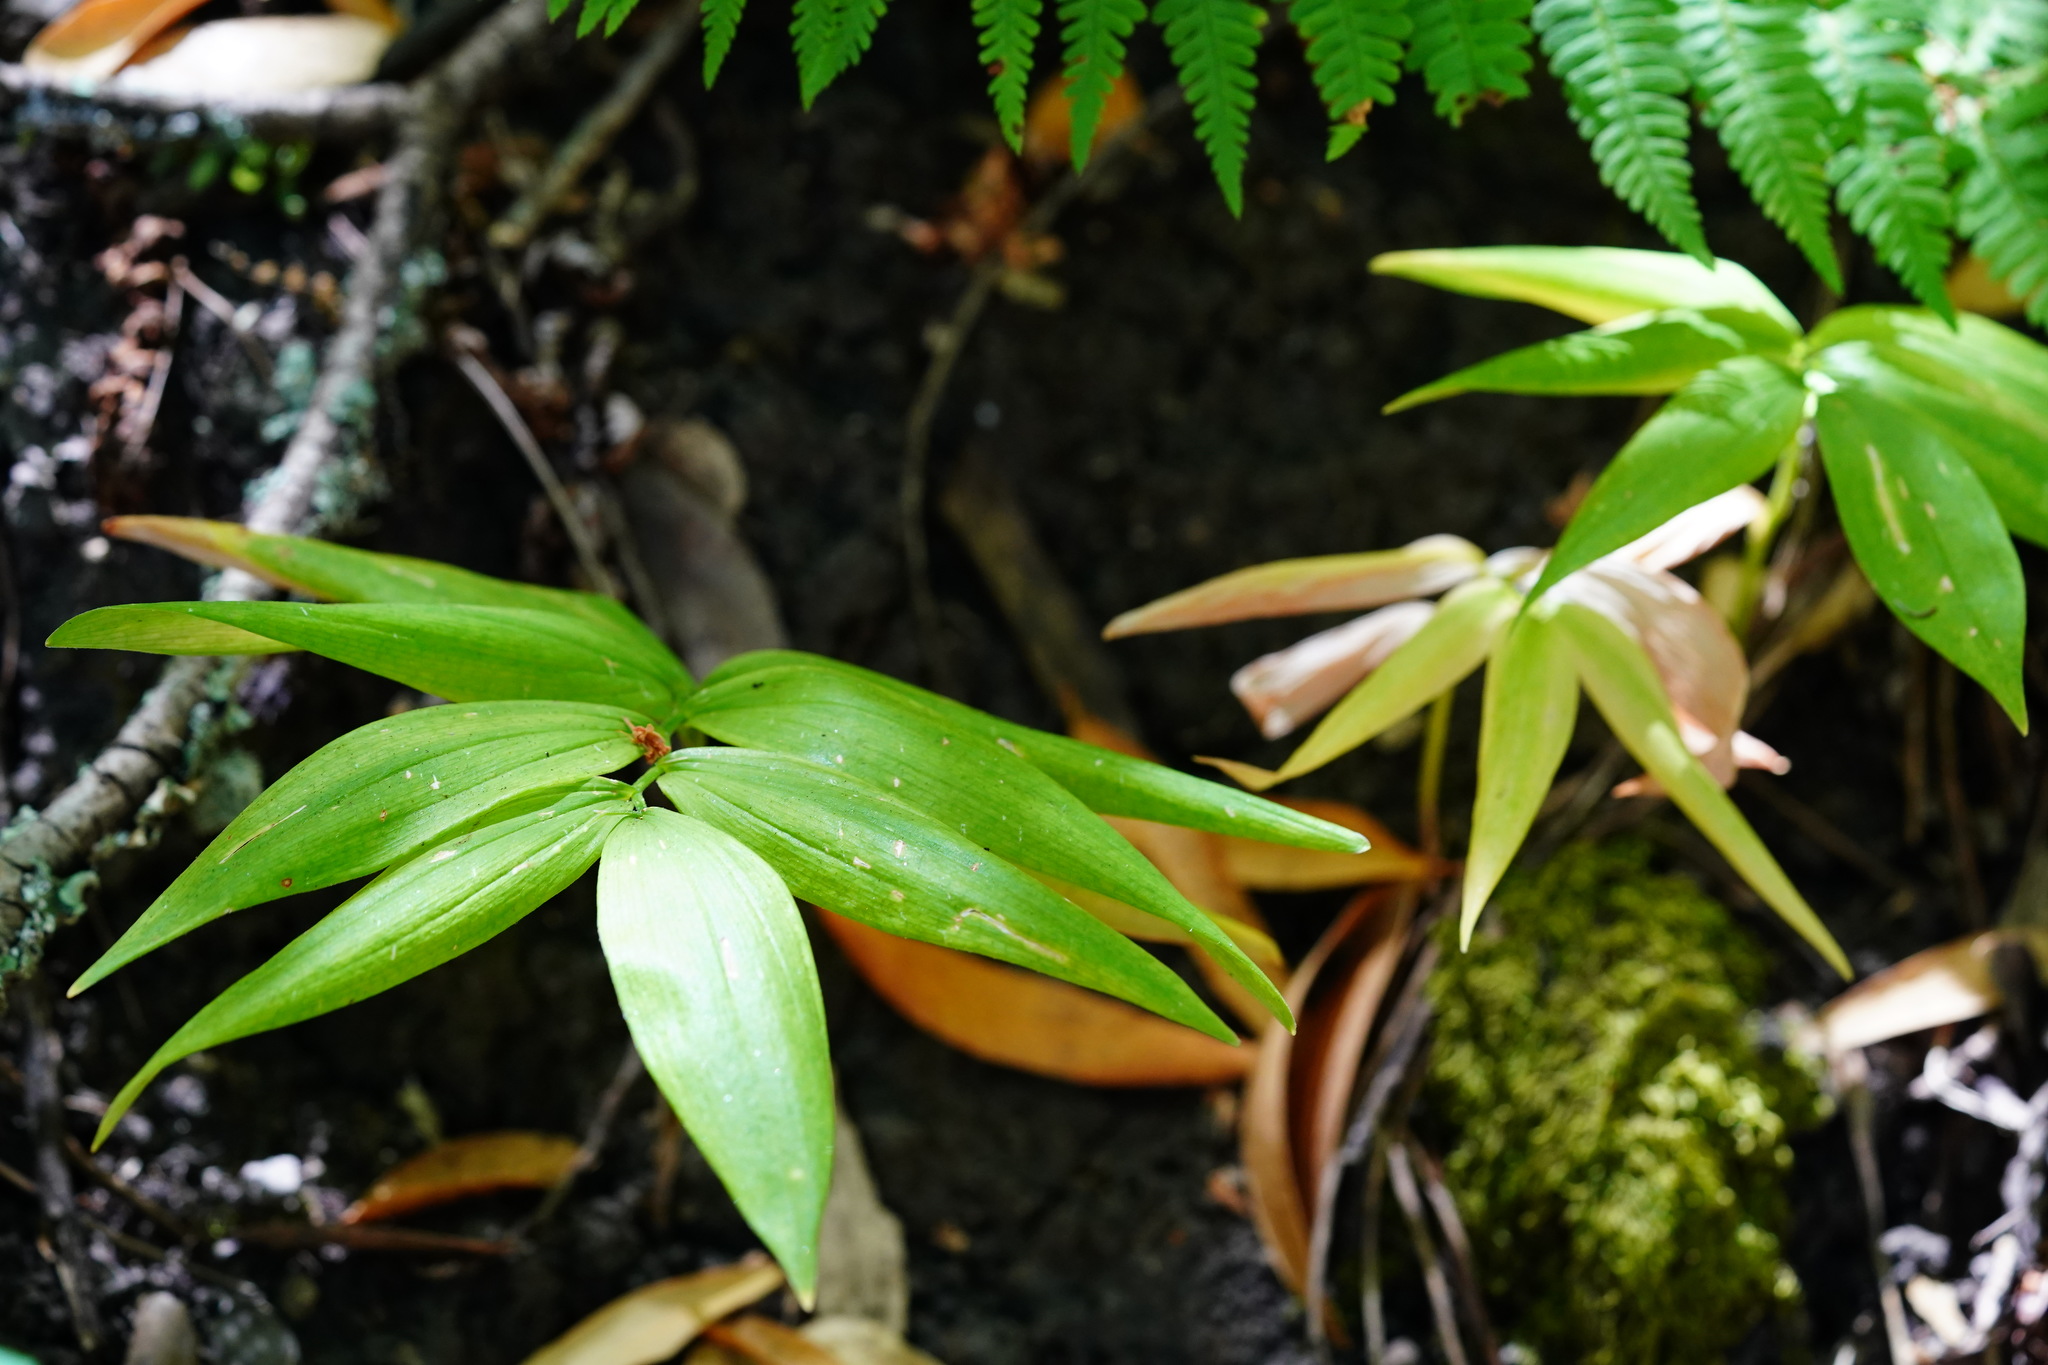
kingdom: Plantae
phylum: Tracheophyta
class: Liliopsida
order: Asparagales
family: Asparagaceae
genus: Maianthemum
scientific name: Maianthemum stellatum
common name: Little false solomon's seal
